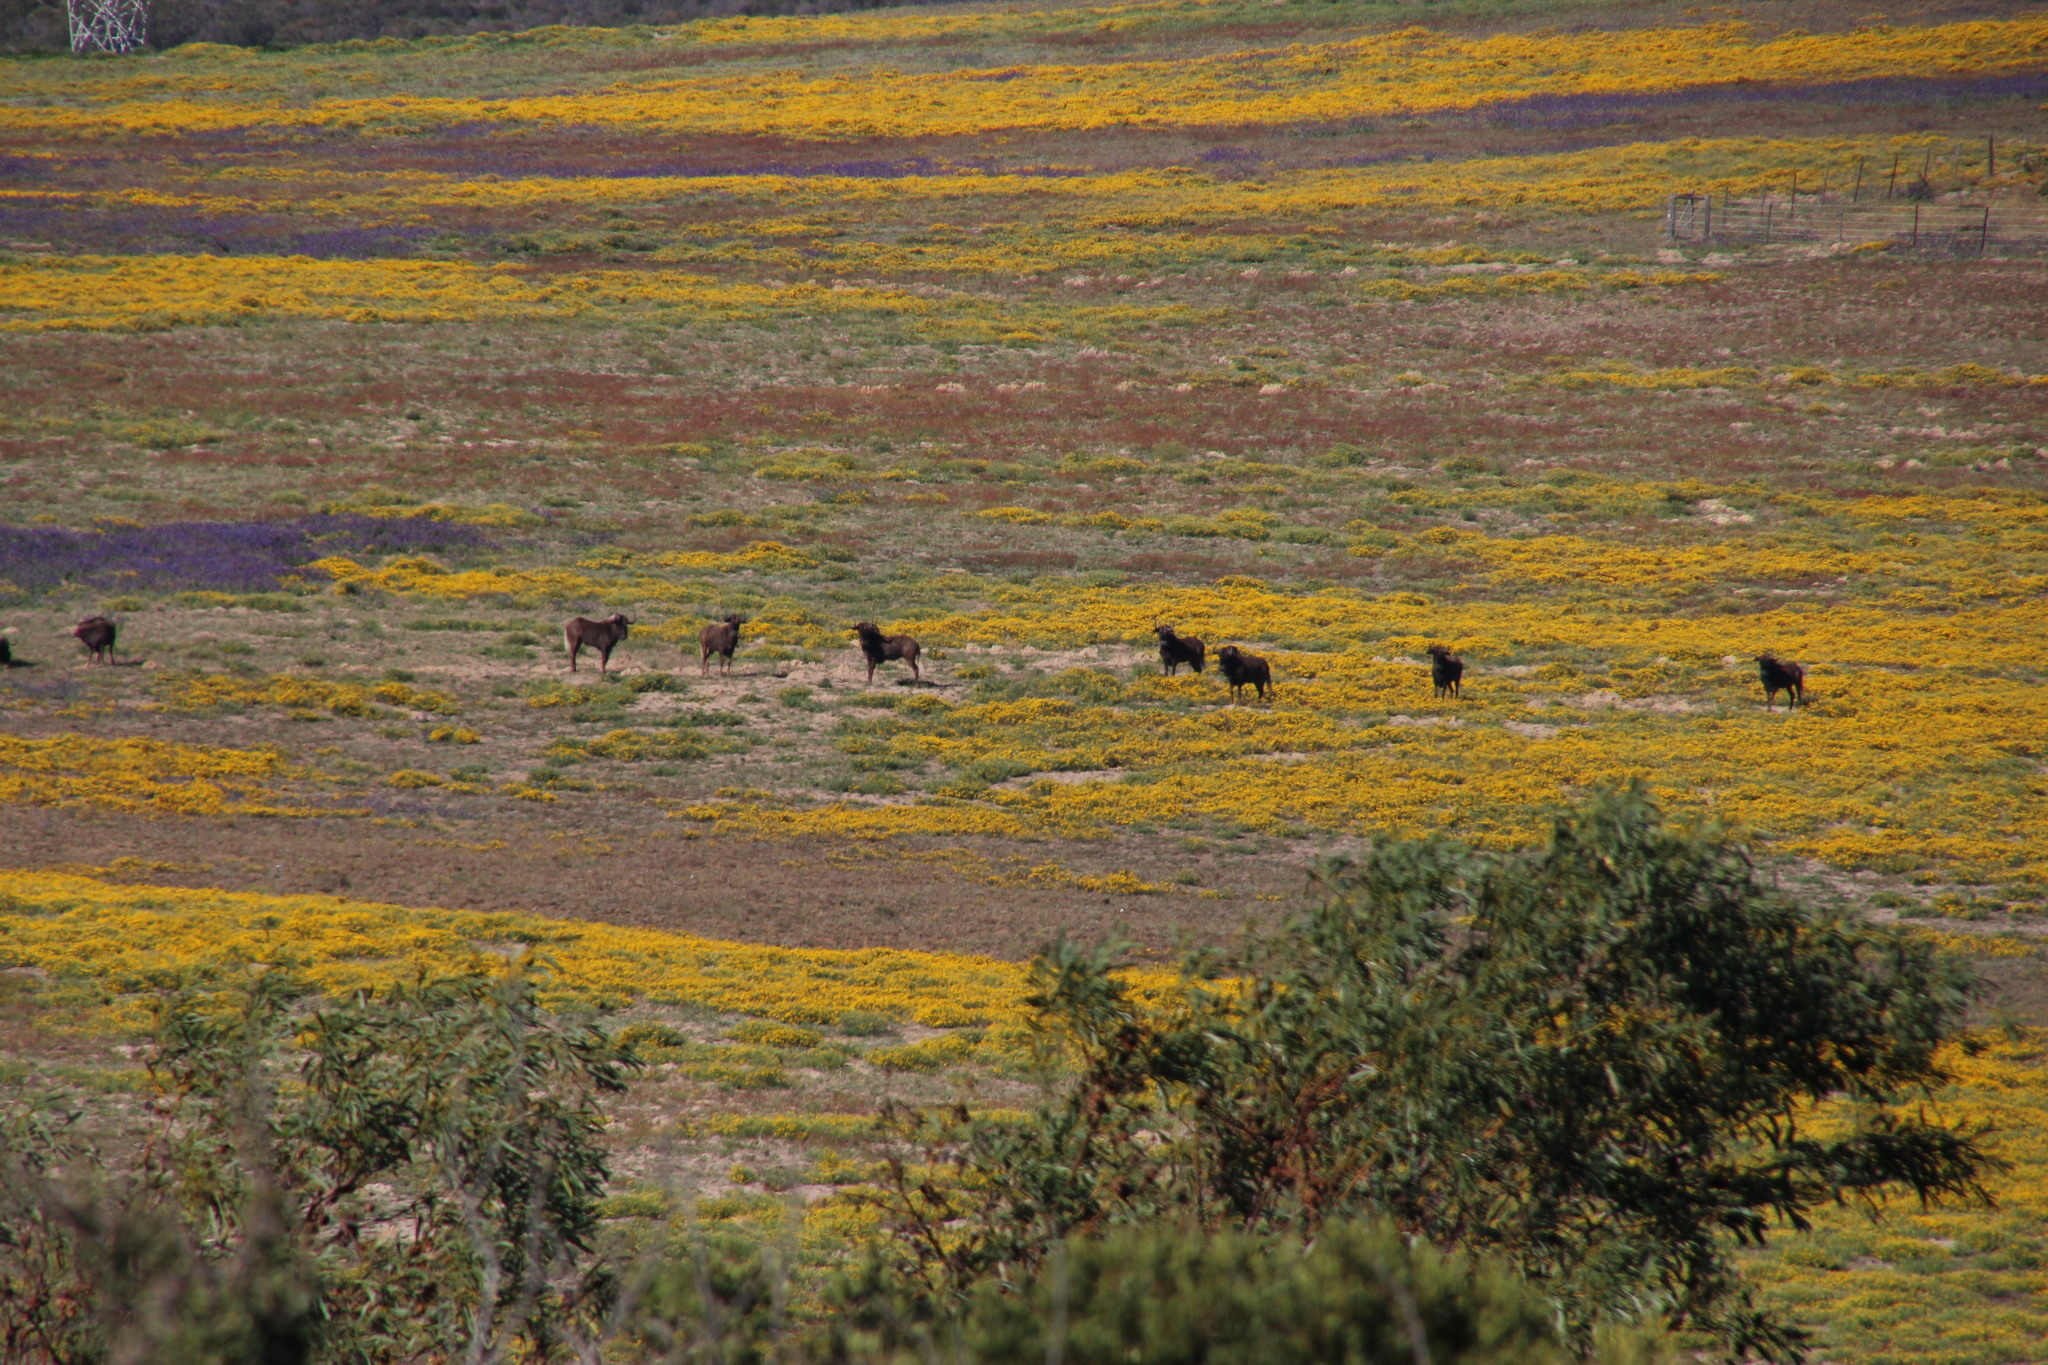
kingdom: Animalia
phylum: Chordata
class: Mammalia
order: Artiodactyla
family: Bovidae
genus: Connochaetes
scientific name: Connochaetes gnou
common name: Black wildebeest
